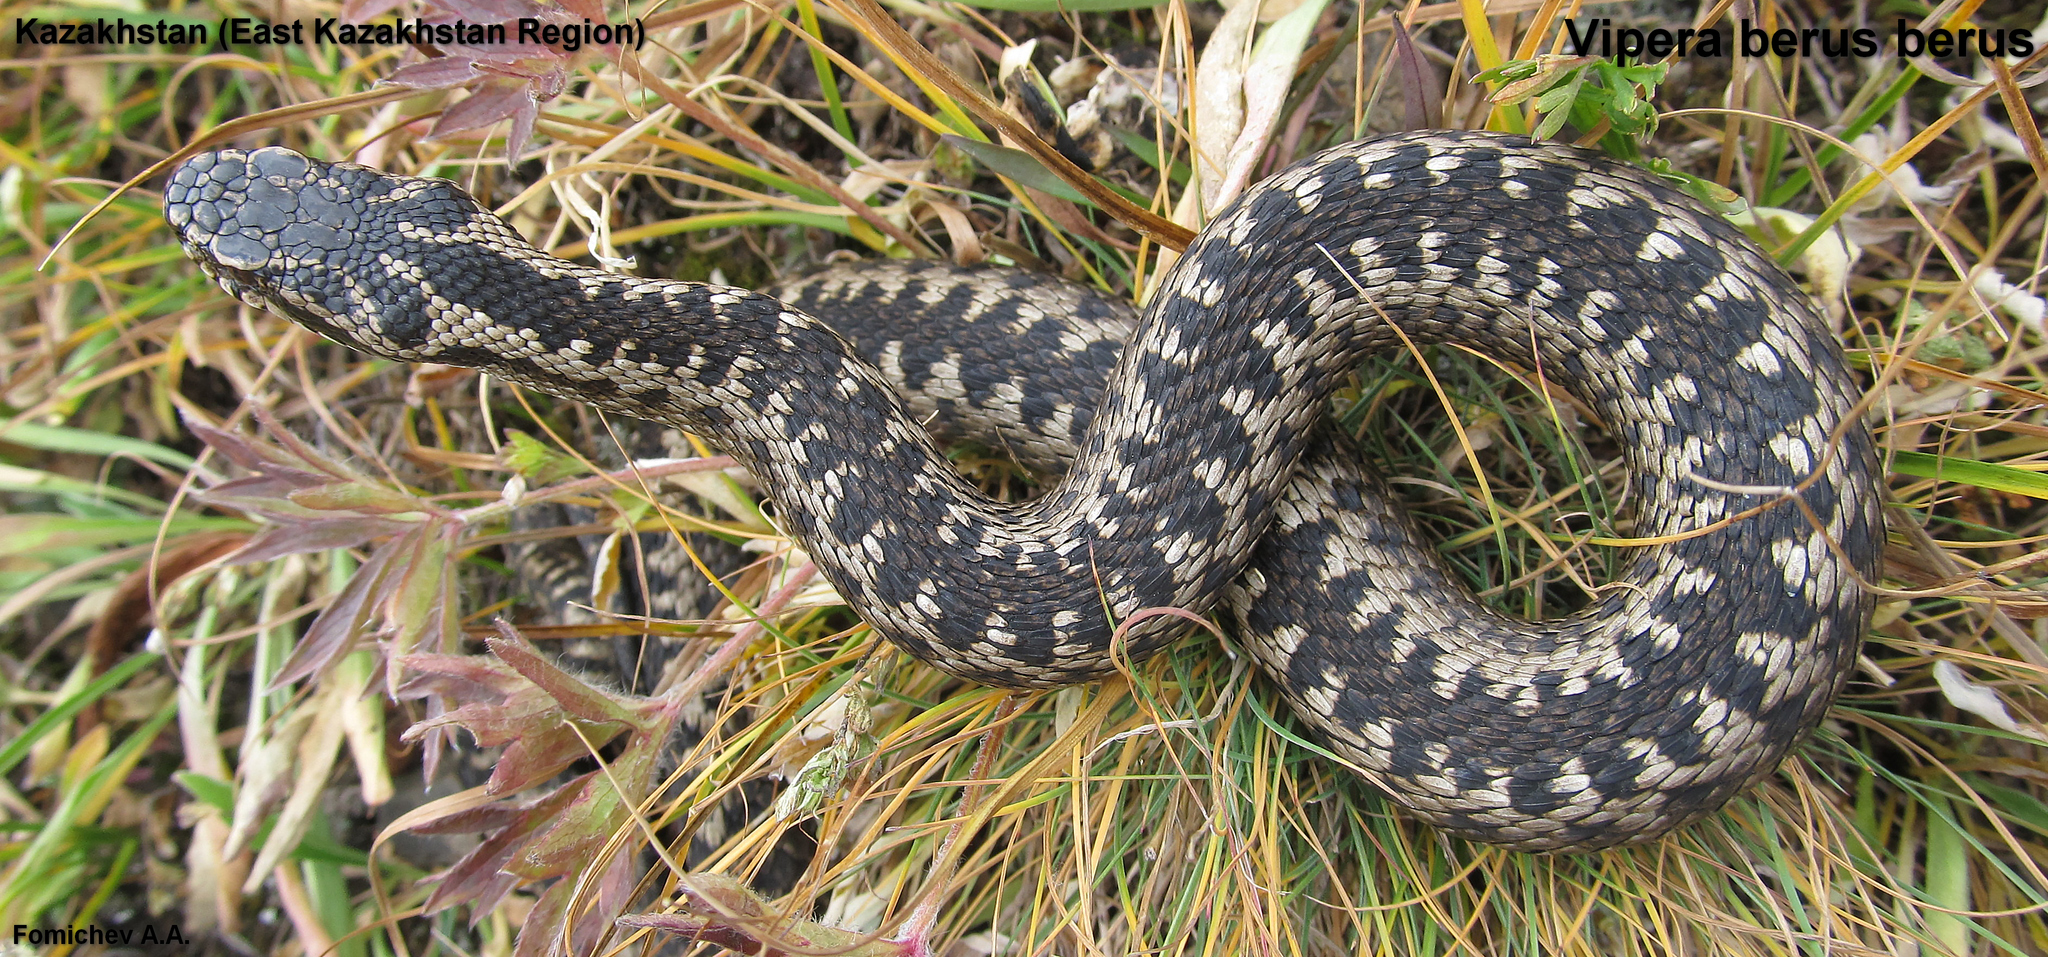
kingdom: Animalia
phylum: Chordata
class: Squamata
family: Viperidae
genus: Vipera
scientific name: Vipera berus
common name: Adder
